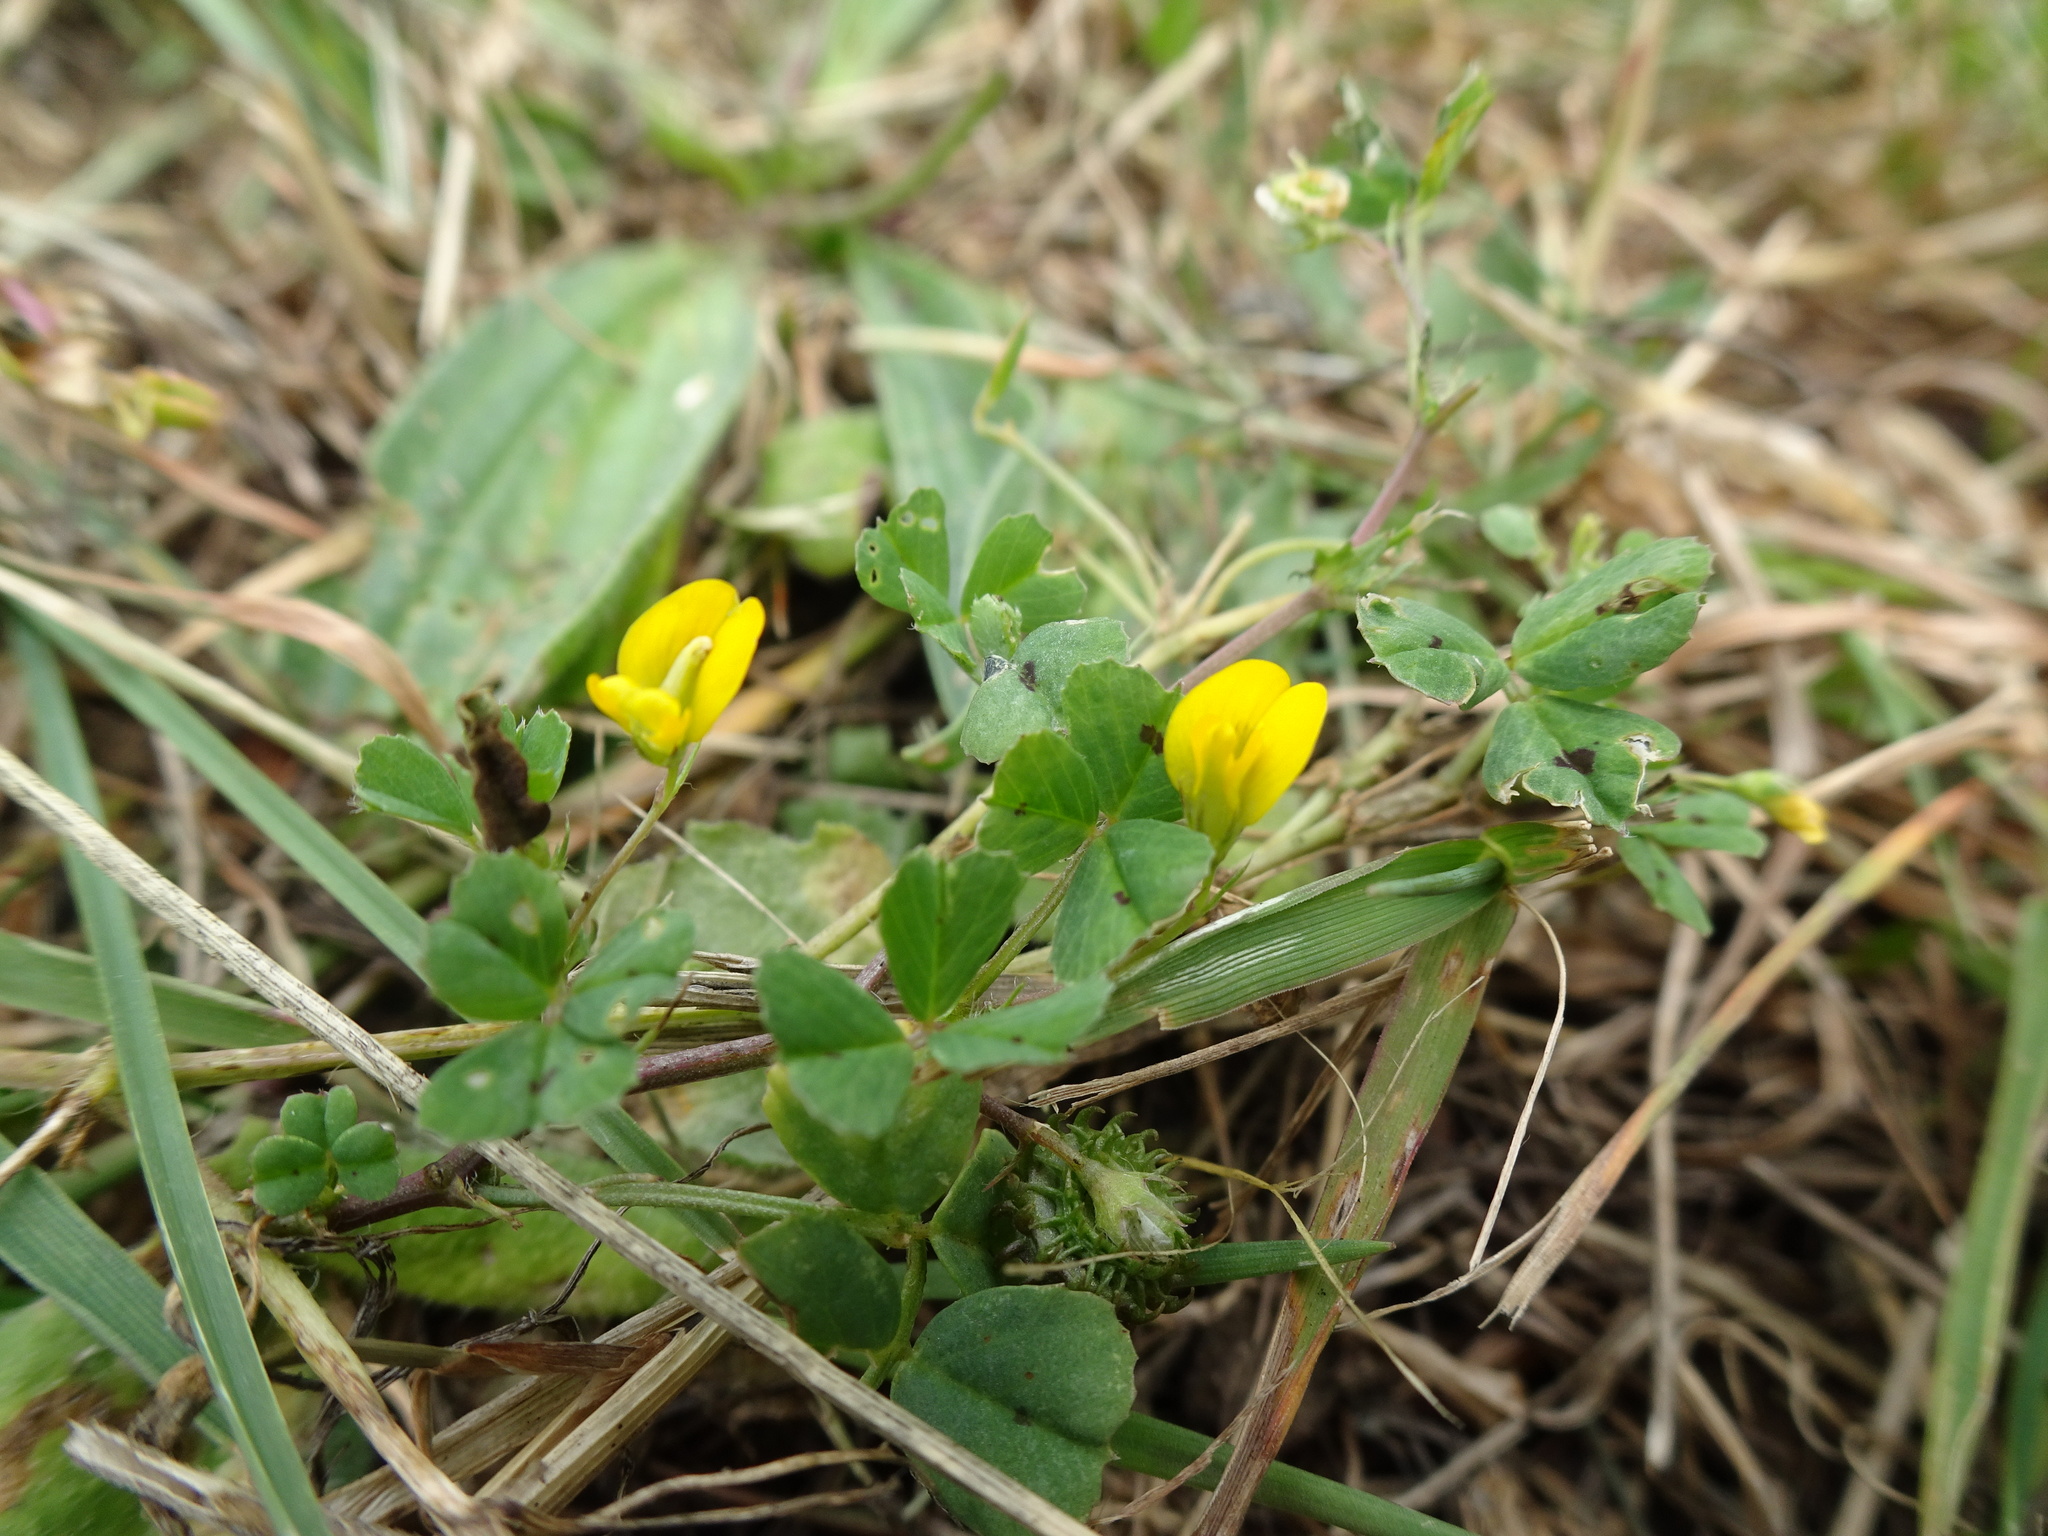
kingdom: Plantae
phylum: Tracheophyta
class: Magnoliopsida
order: Fabales
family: Fabaceae
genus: Medicago
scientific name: Medicago arabica
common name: Spotted medick
